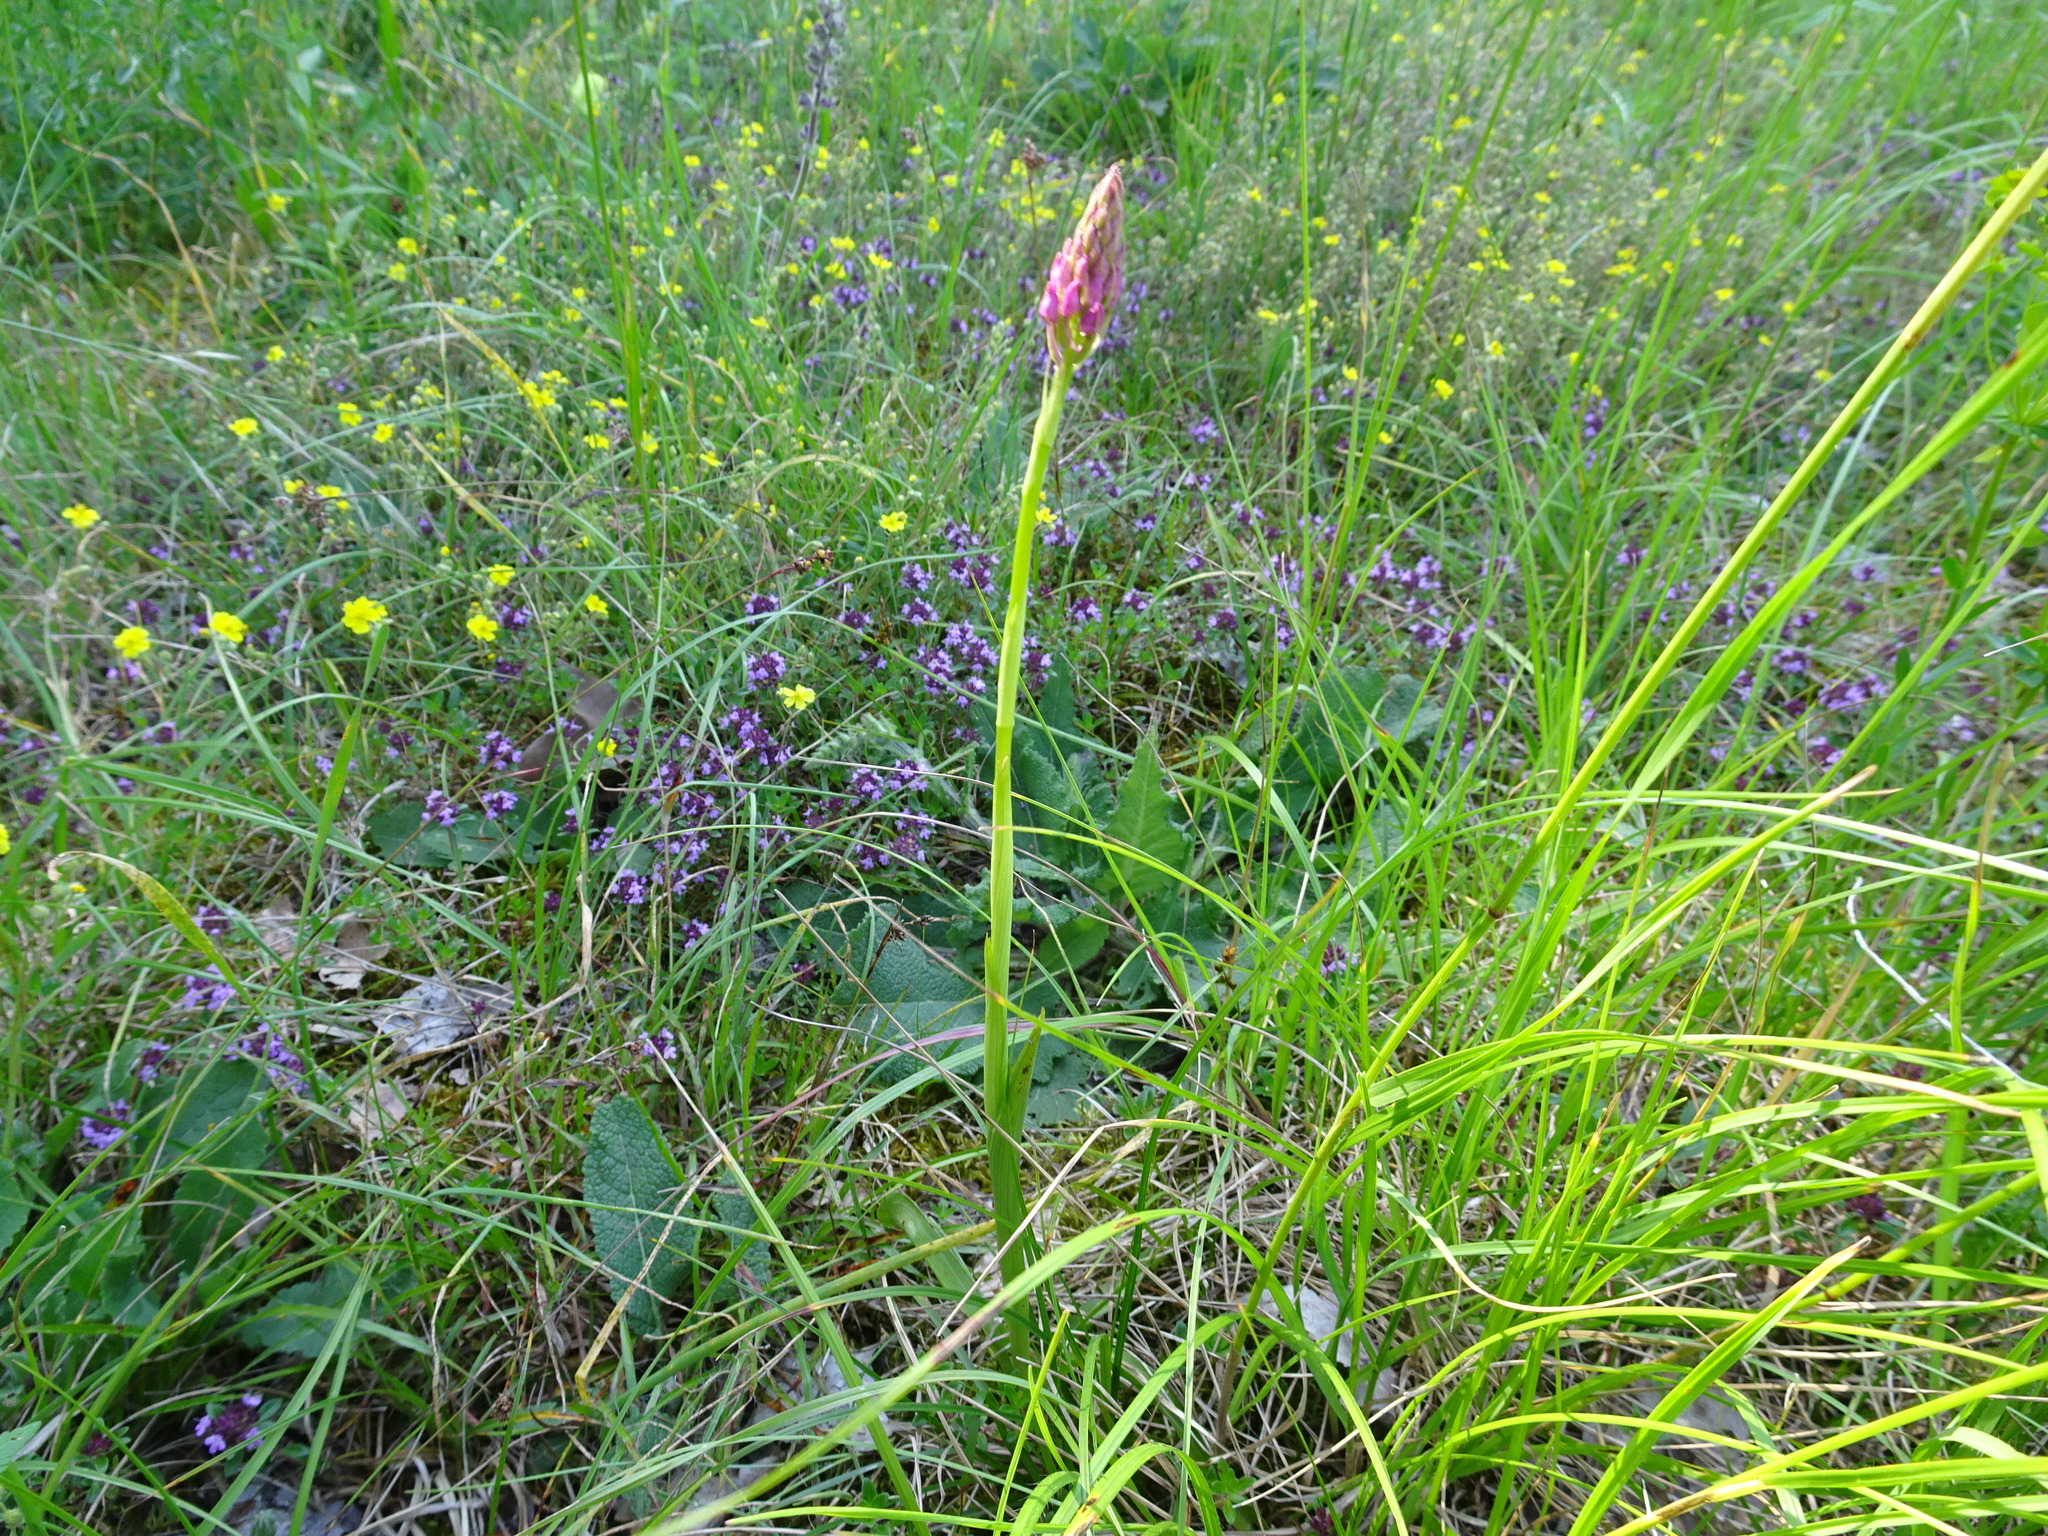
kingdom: Plantae
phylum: Tracheophyta
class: Liliopsida
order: Asparagales
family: Orchidaceae
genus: Anacamptis
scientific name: Anacamptis pyramidalis
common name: Pyramidal orchid
